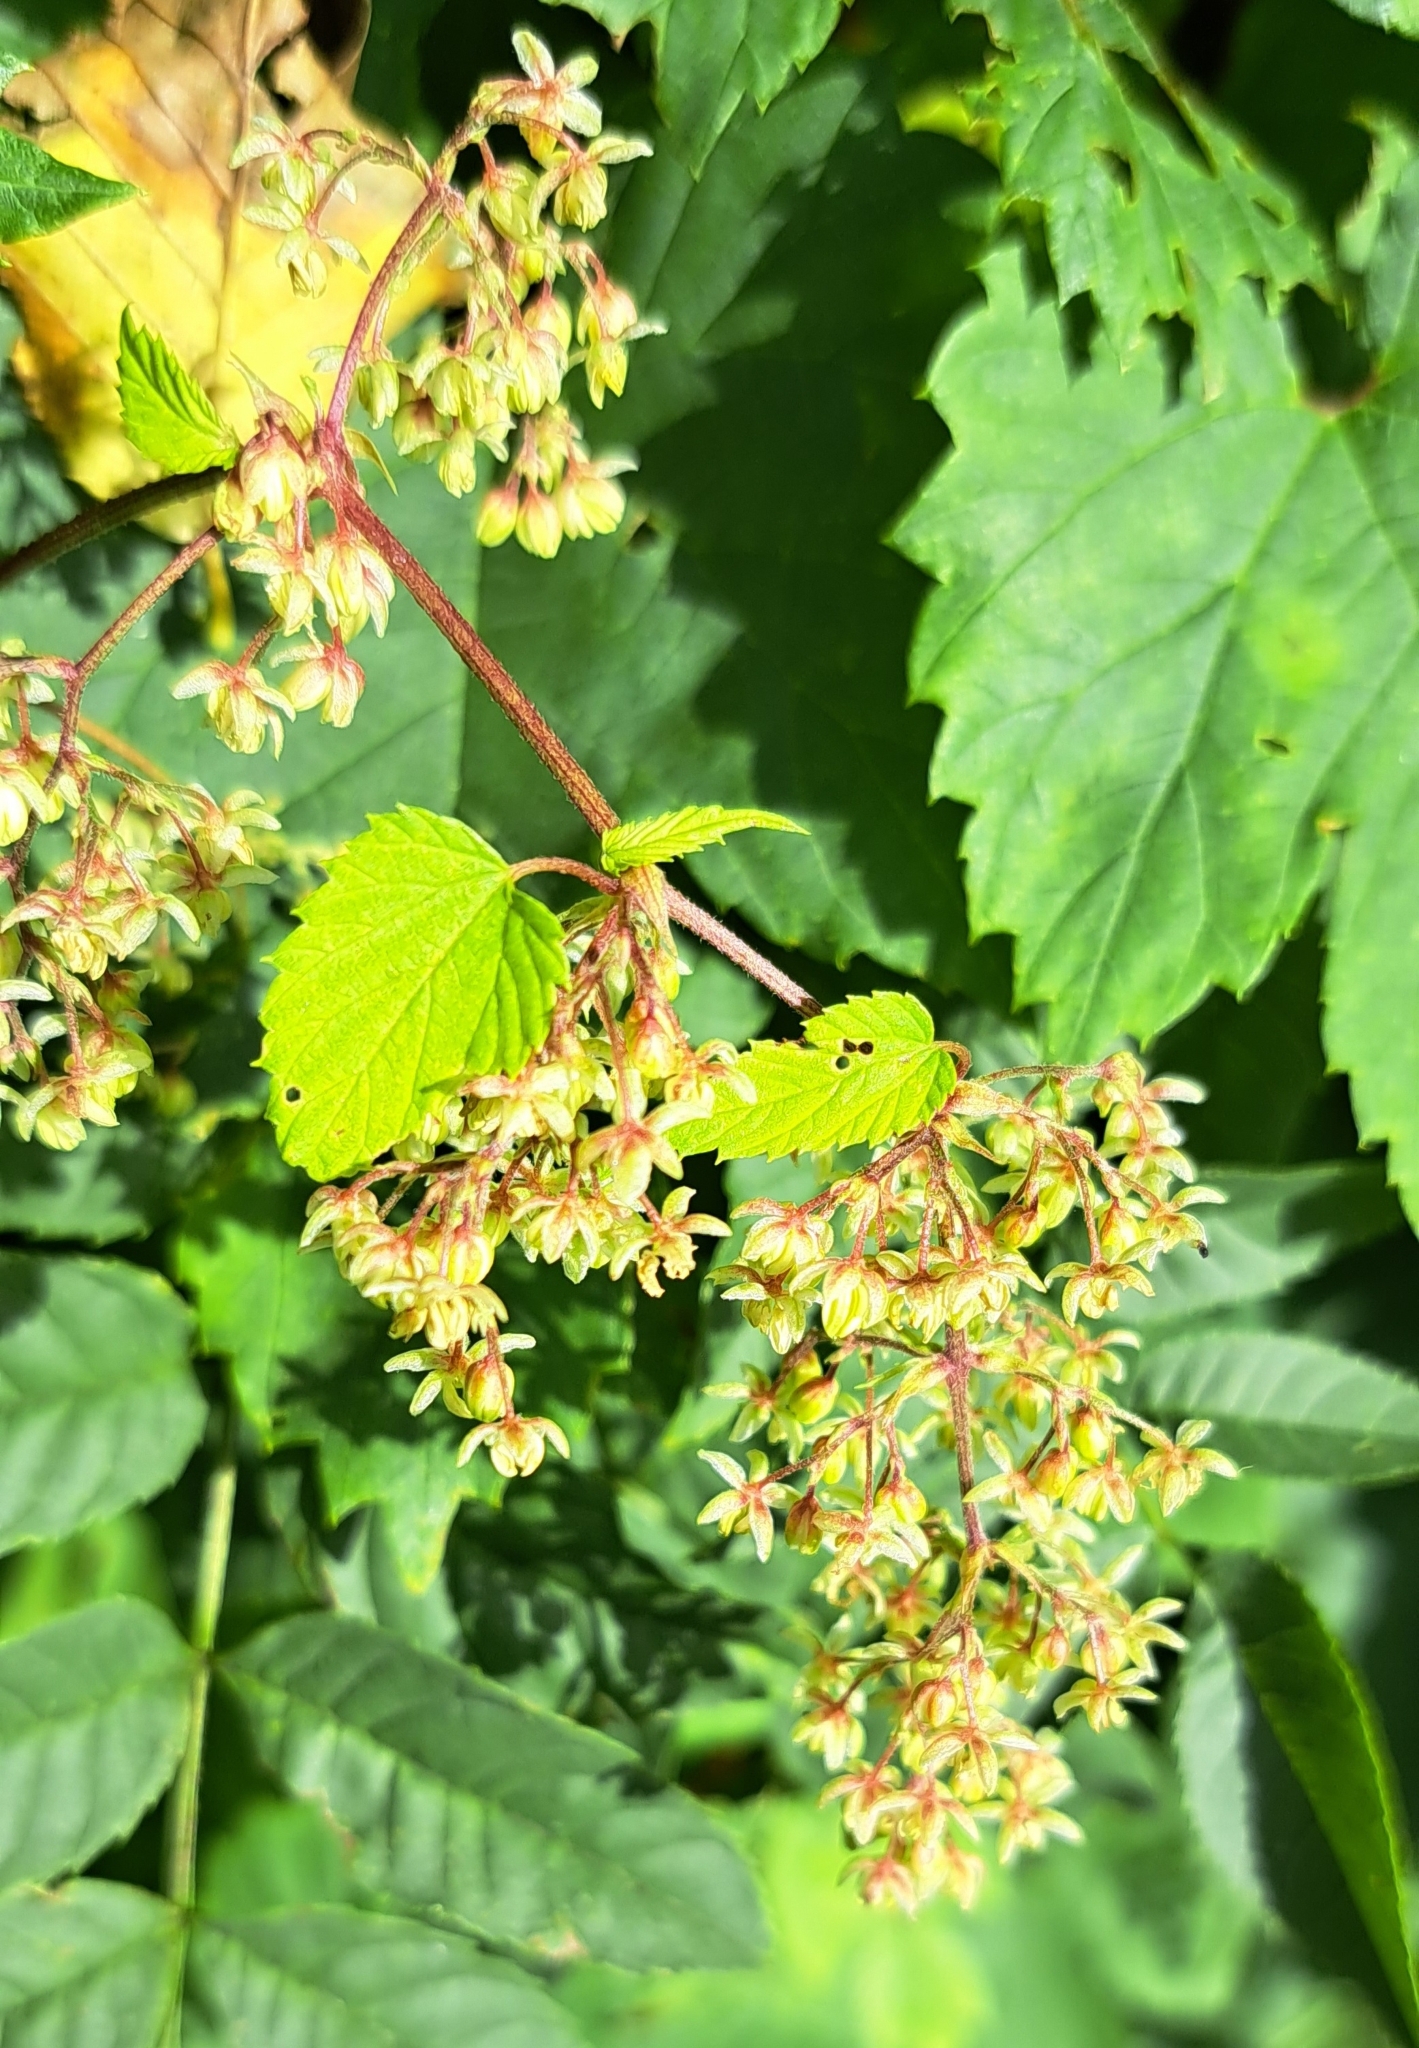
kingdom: Plantae
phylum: Tracheophyta
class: Magnoliopsida
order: Rosales
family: Cannabaceae
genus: Humulus
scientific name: Humulus lupulus
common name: Hop
